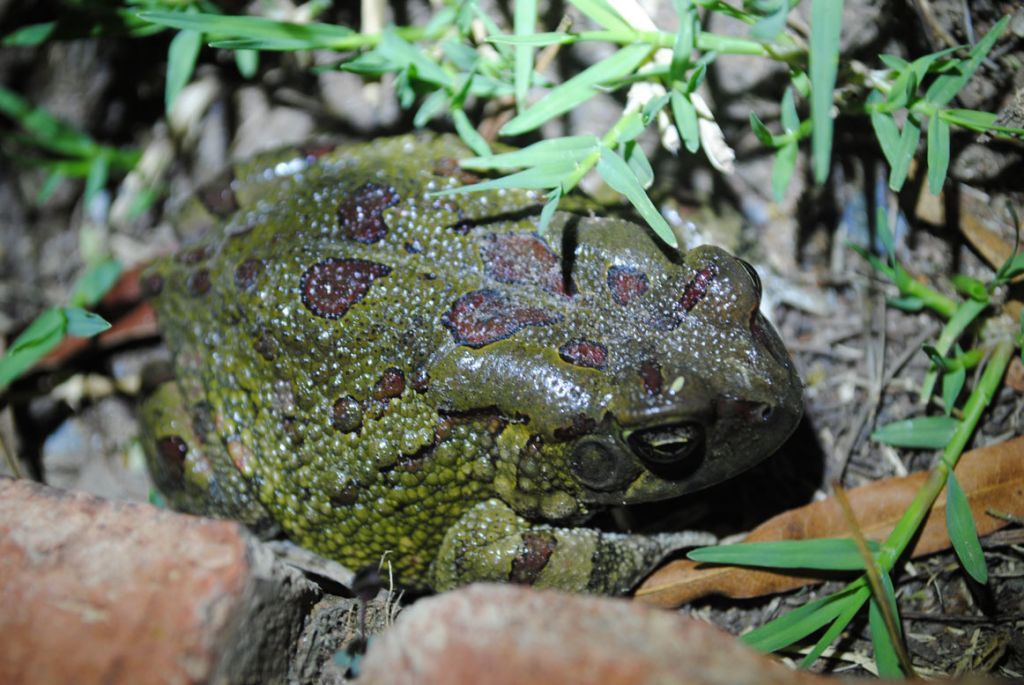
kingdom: Animalia
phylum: Chordata
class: Amphibia
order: Anura
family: Bufonidae
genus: Sclerophrys
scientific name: Sclerophrys poweri
